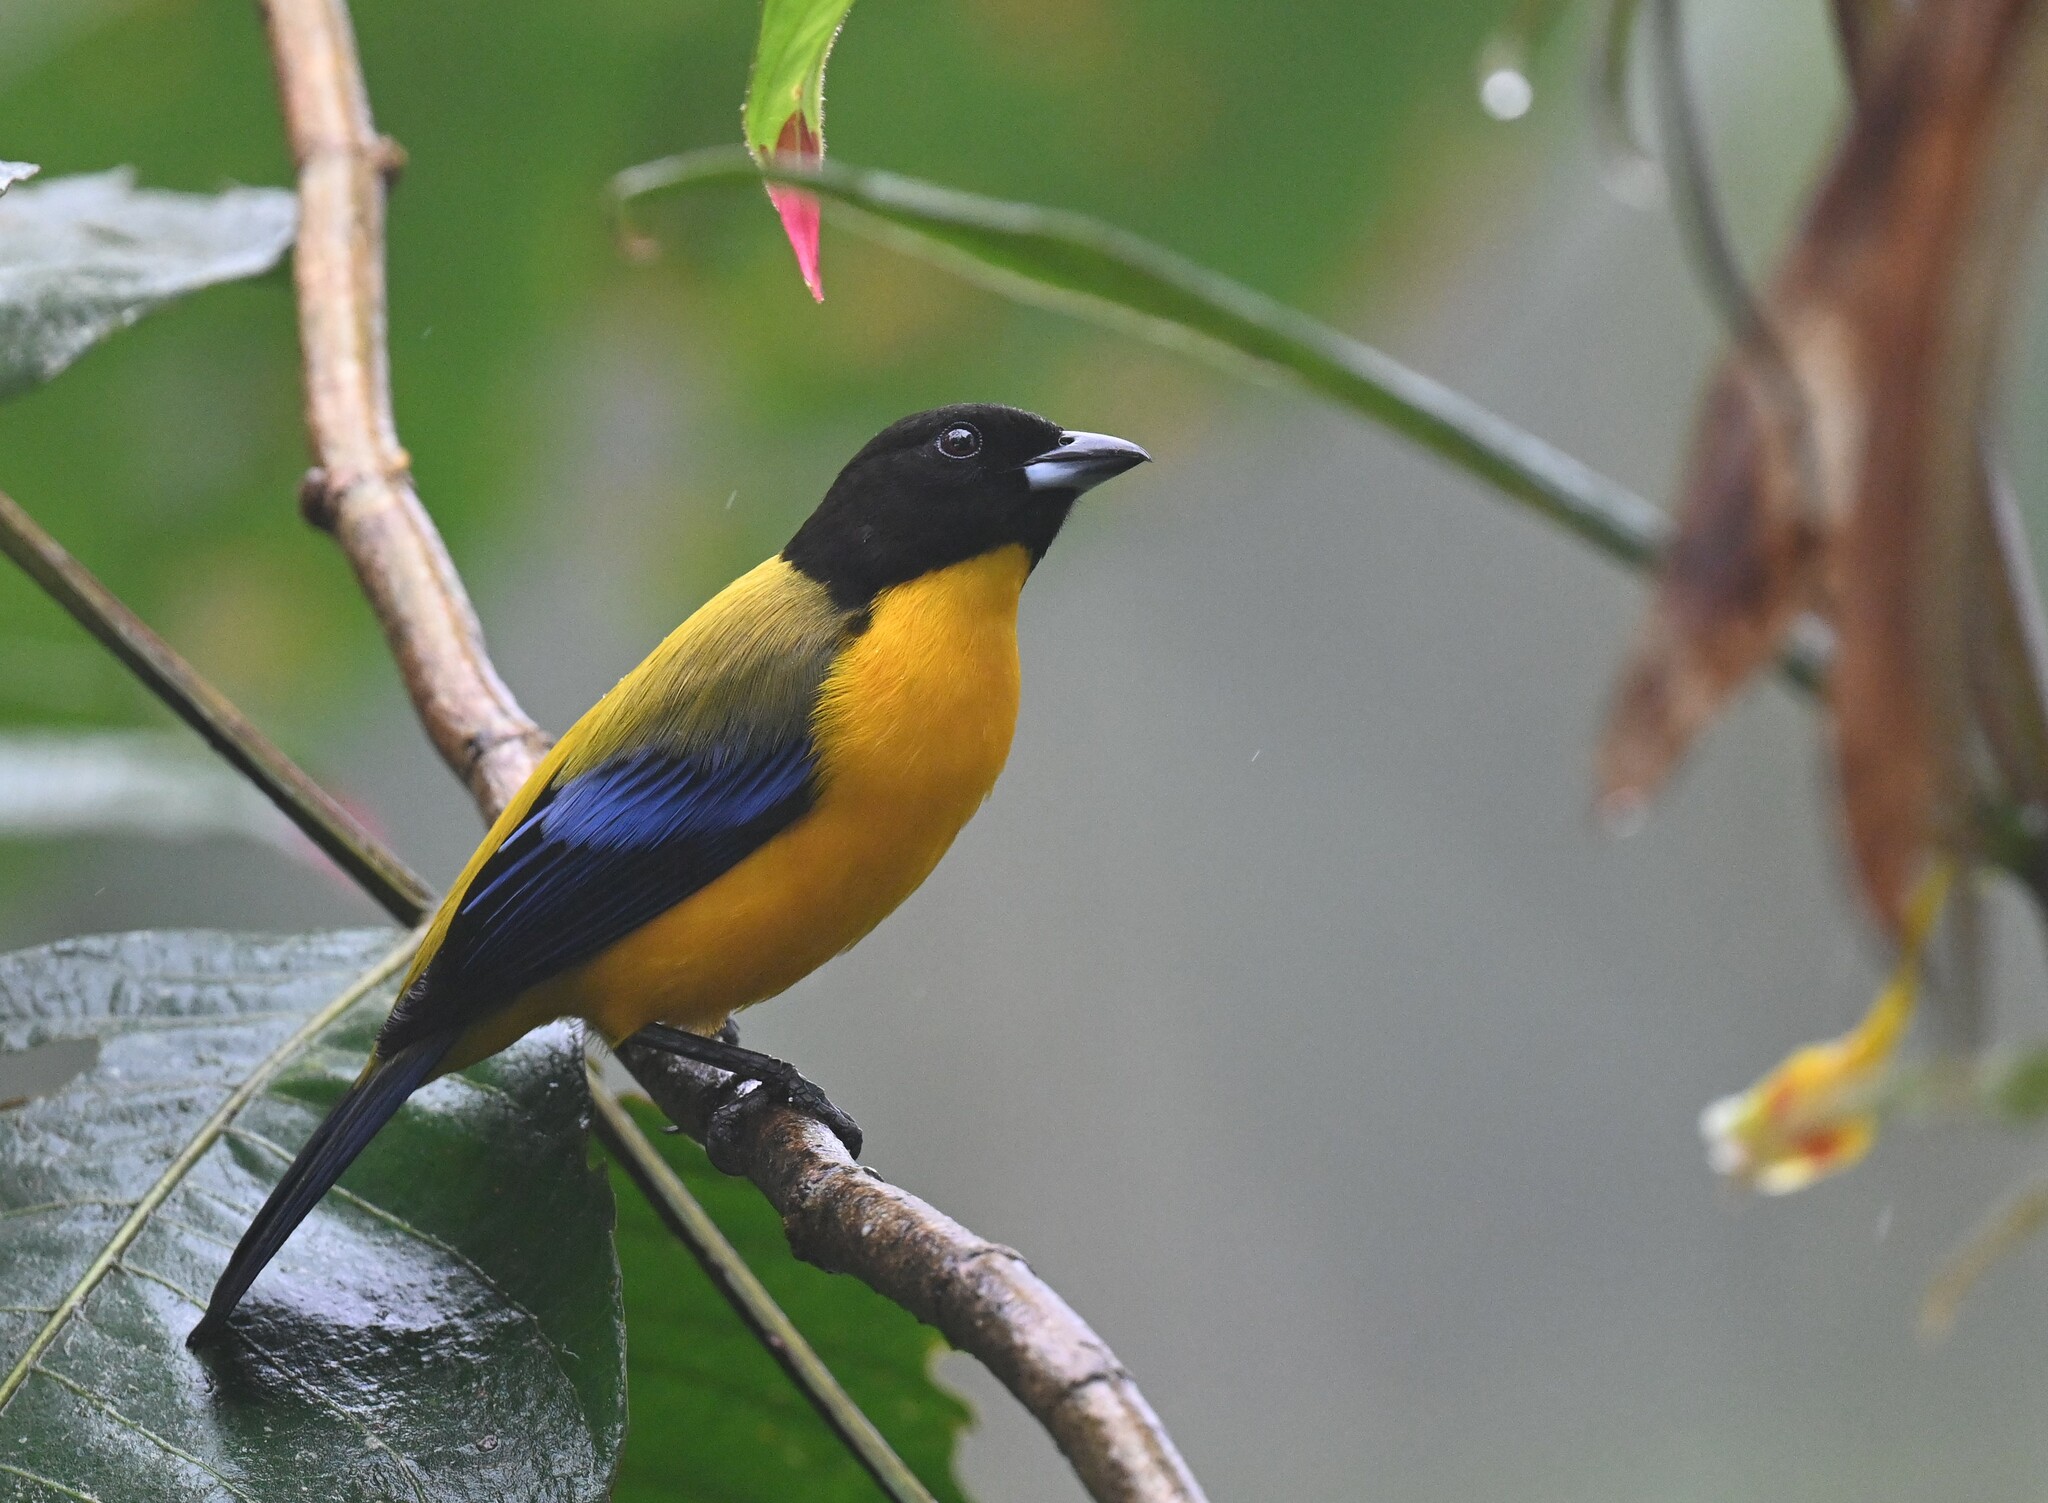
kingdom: Animalia
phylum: Chordata
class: Aves
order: Passeriformes
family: Thraupidae
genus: Anisognathus
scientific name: Anisognathus notabilis
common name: Black-chinned mountain tanager
